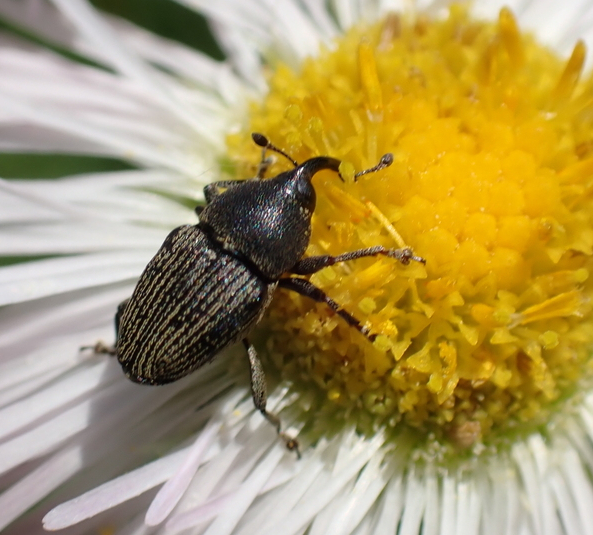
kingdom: Animalia
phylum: Arthropoda
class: Insecta
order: Coleoptera
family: Curculionidae
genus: Odontocorynus
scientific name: Odontocorynus salebrosus
